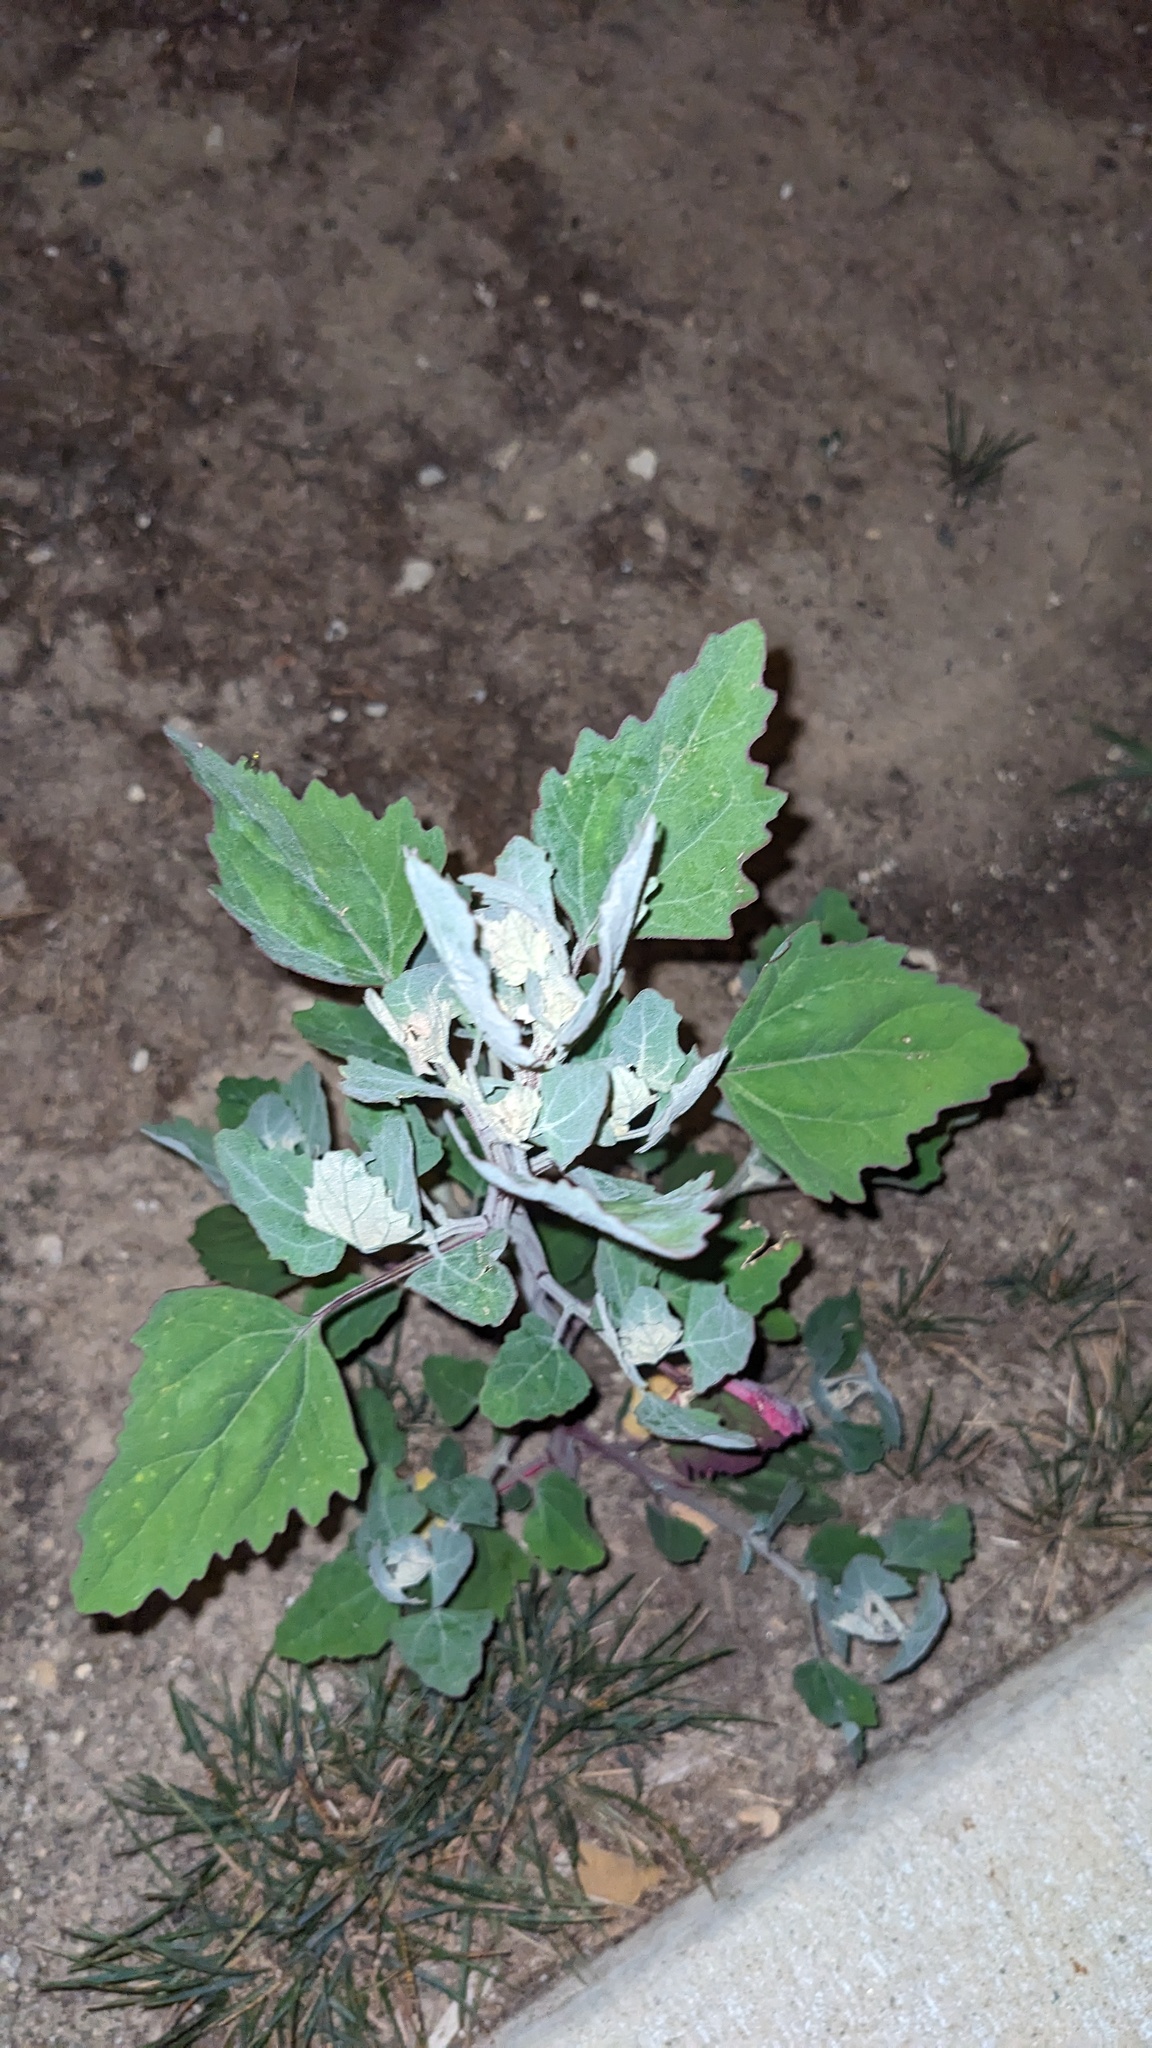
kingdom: Plantae
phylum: Tracheophyta
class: Magnoliopsida
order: Caryophyllales
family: Amaranthaceae
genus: Chenopodium
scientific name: Chenopodium album
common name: Fat-hen
